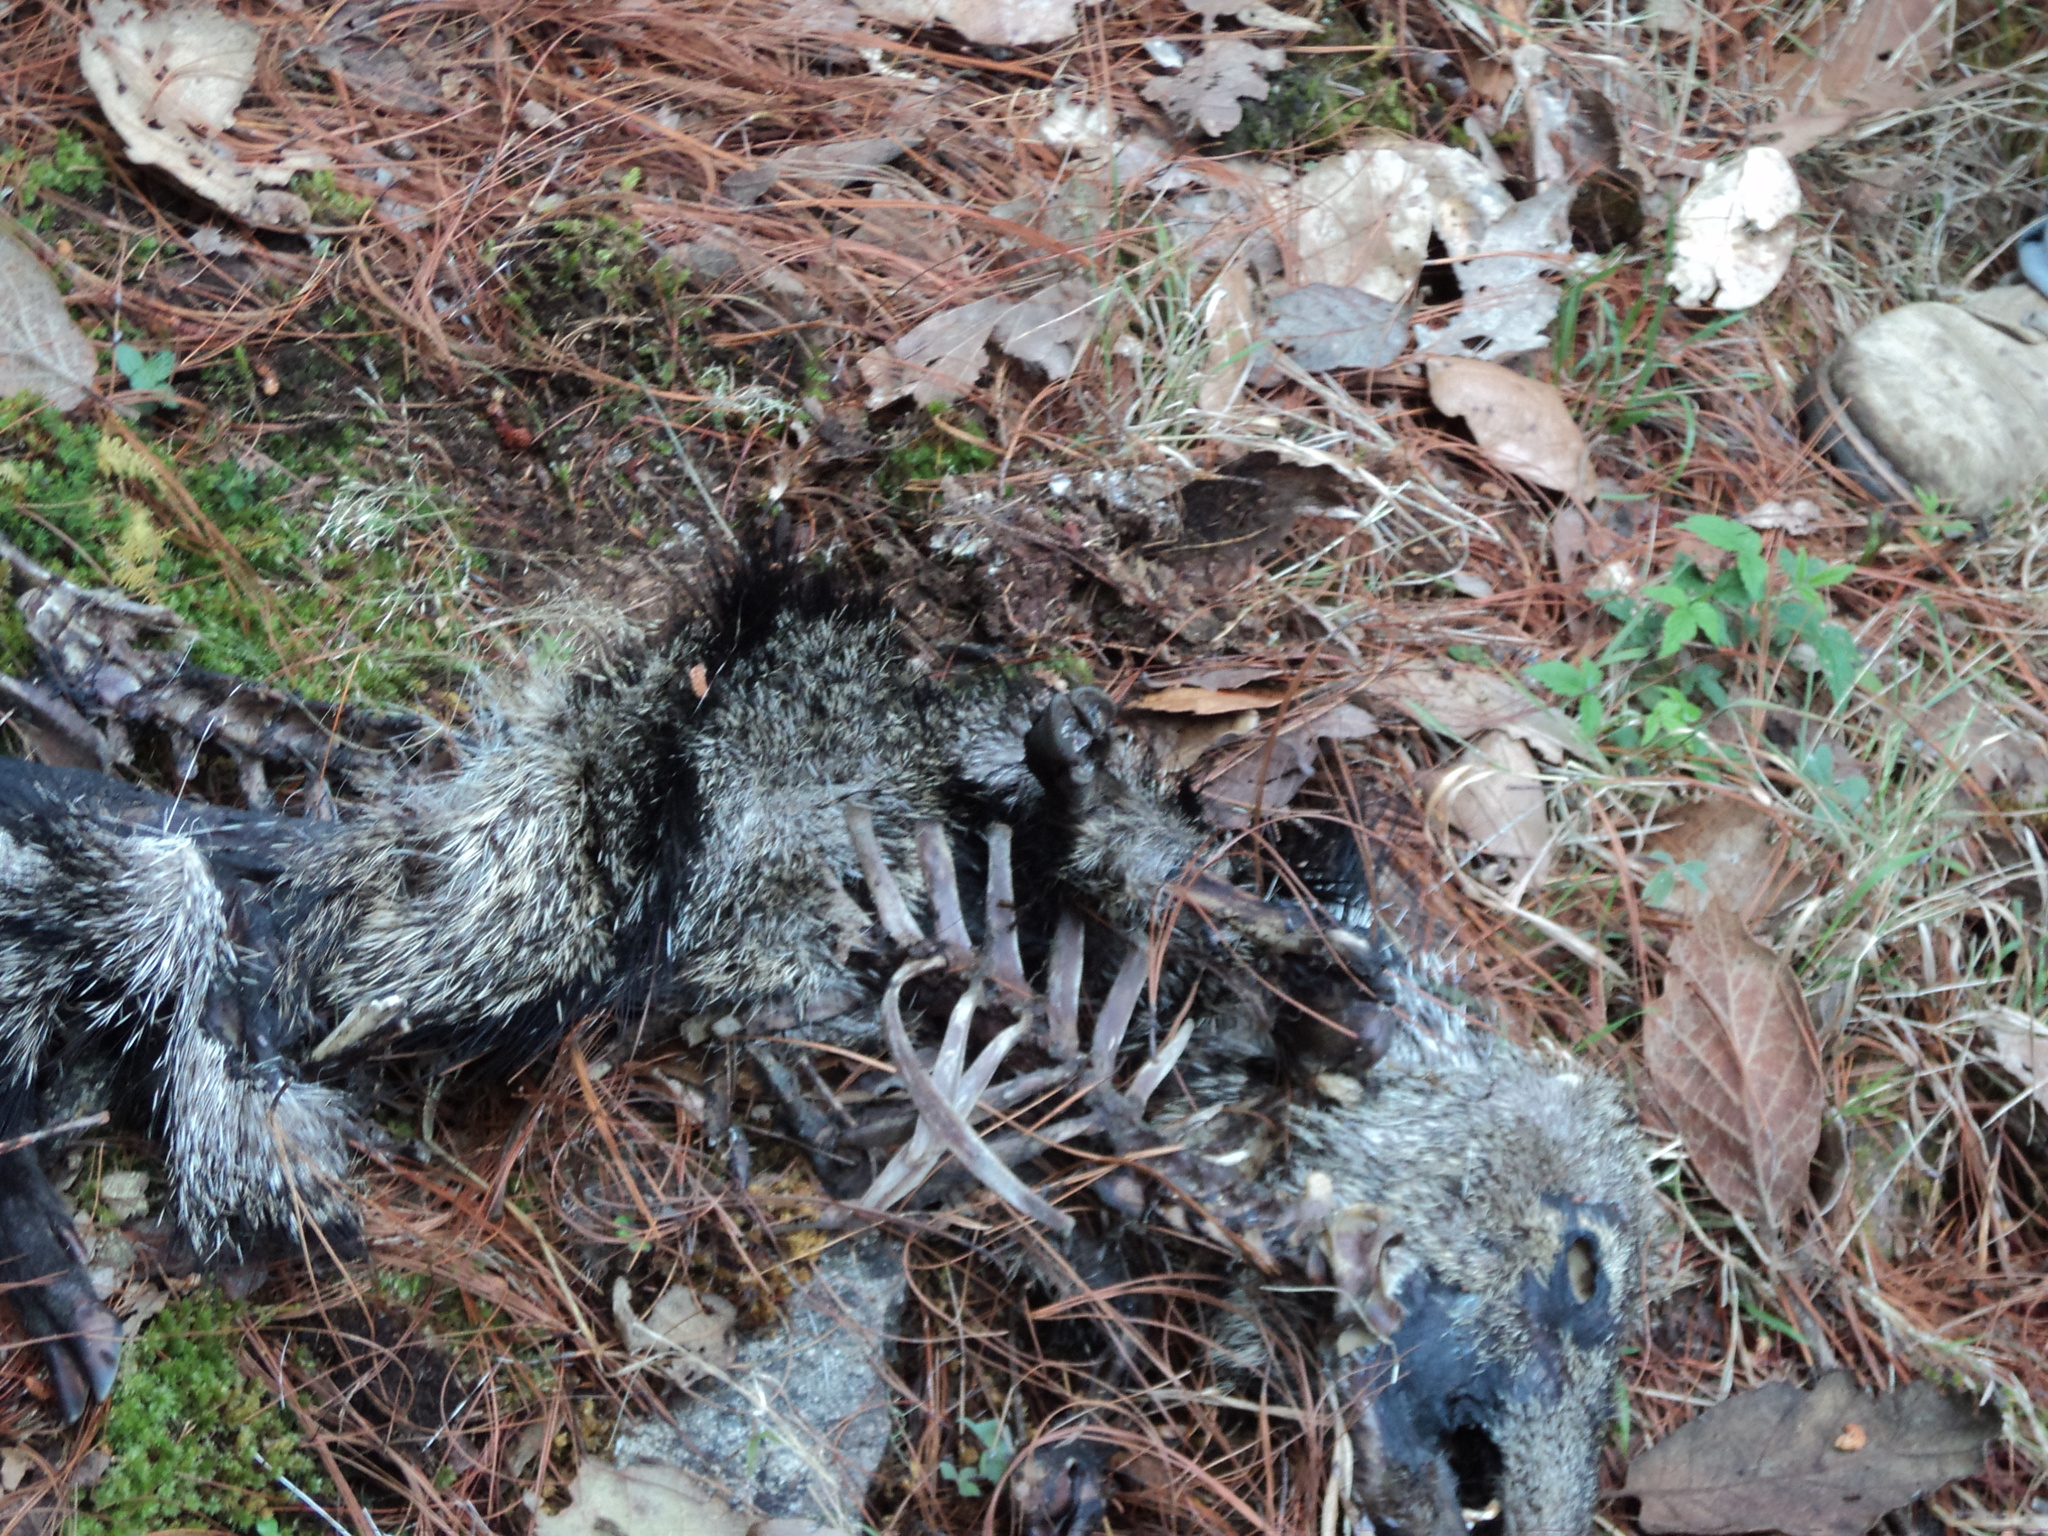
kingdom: Animalia
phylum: Chordata
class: Mammalia
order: Artiodactyla
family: Tayassuidae
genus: Pecari
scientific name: Pecari tajacu
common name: Collared peccary
